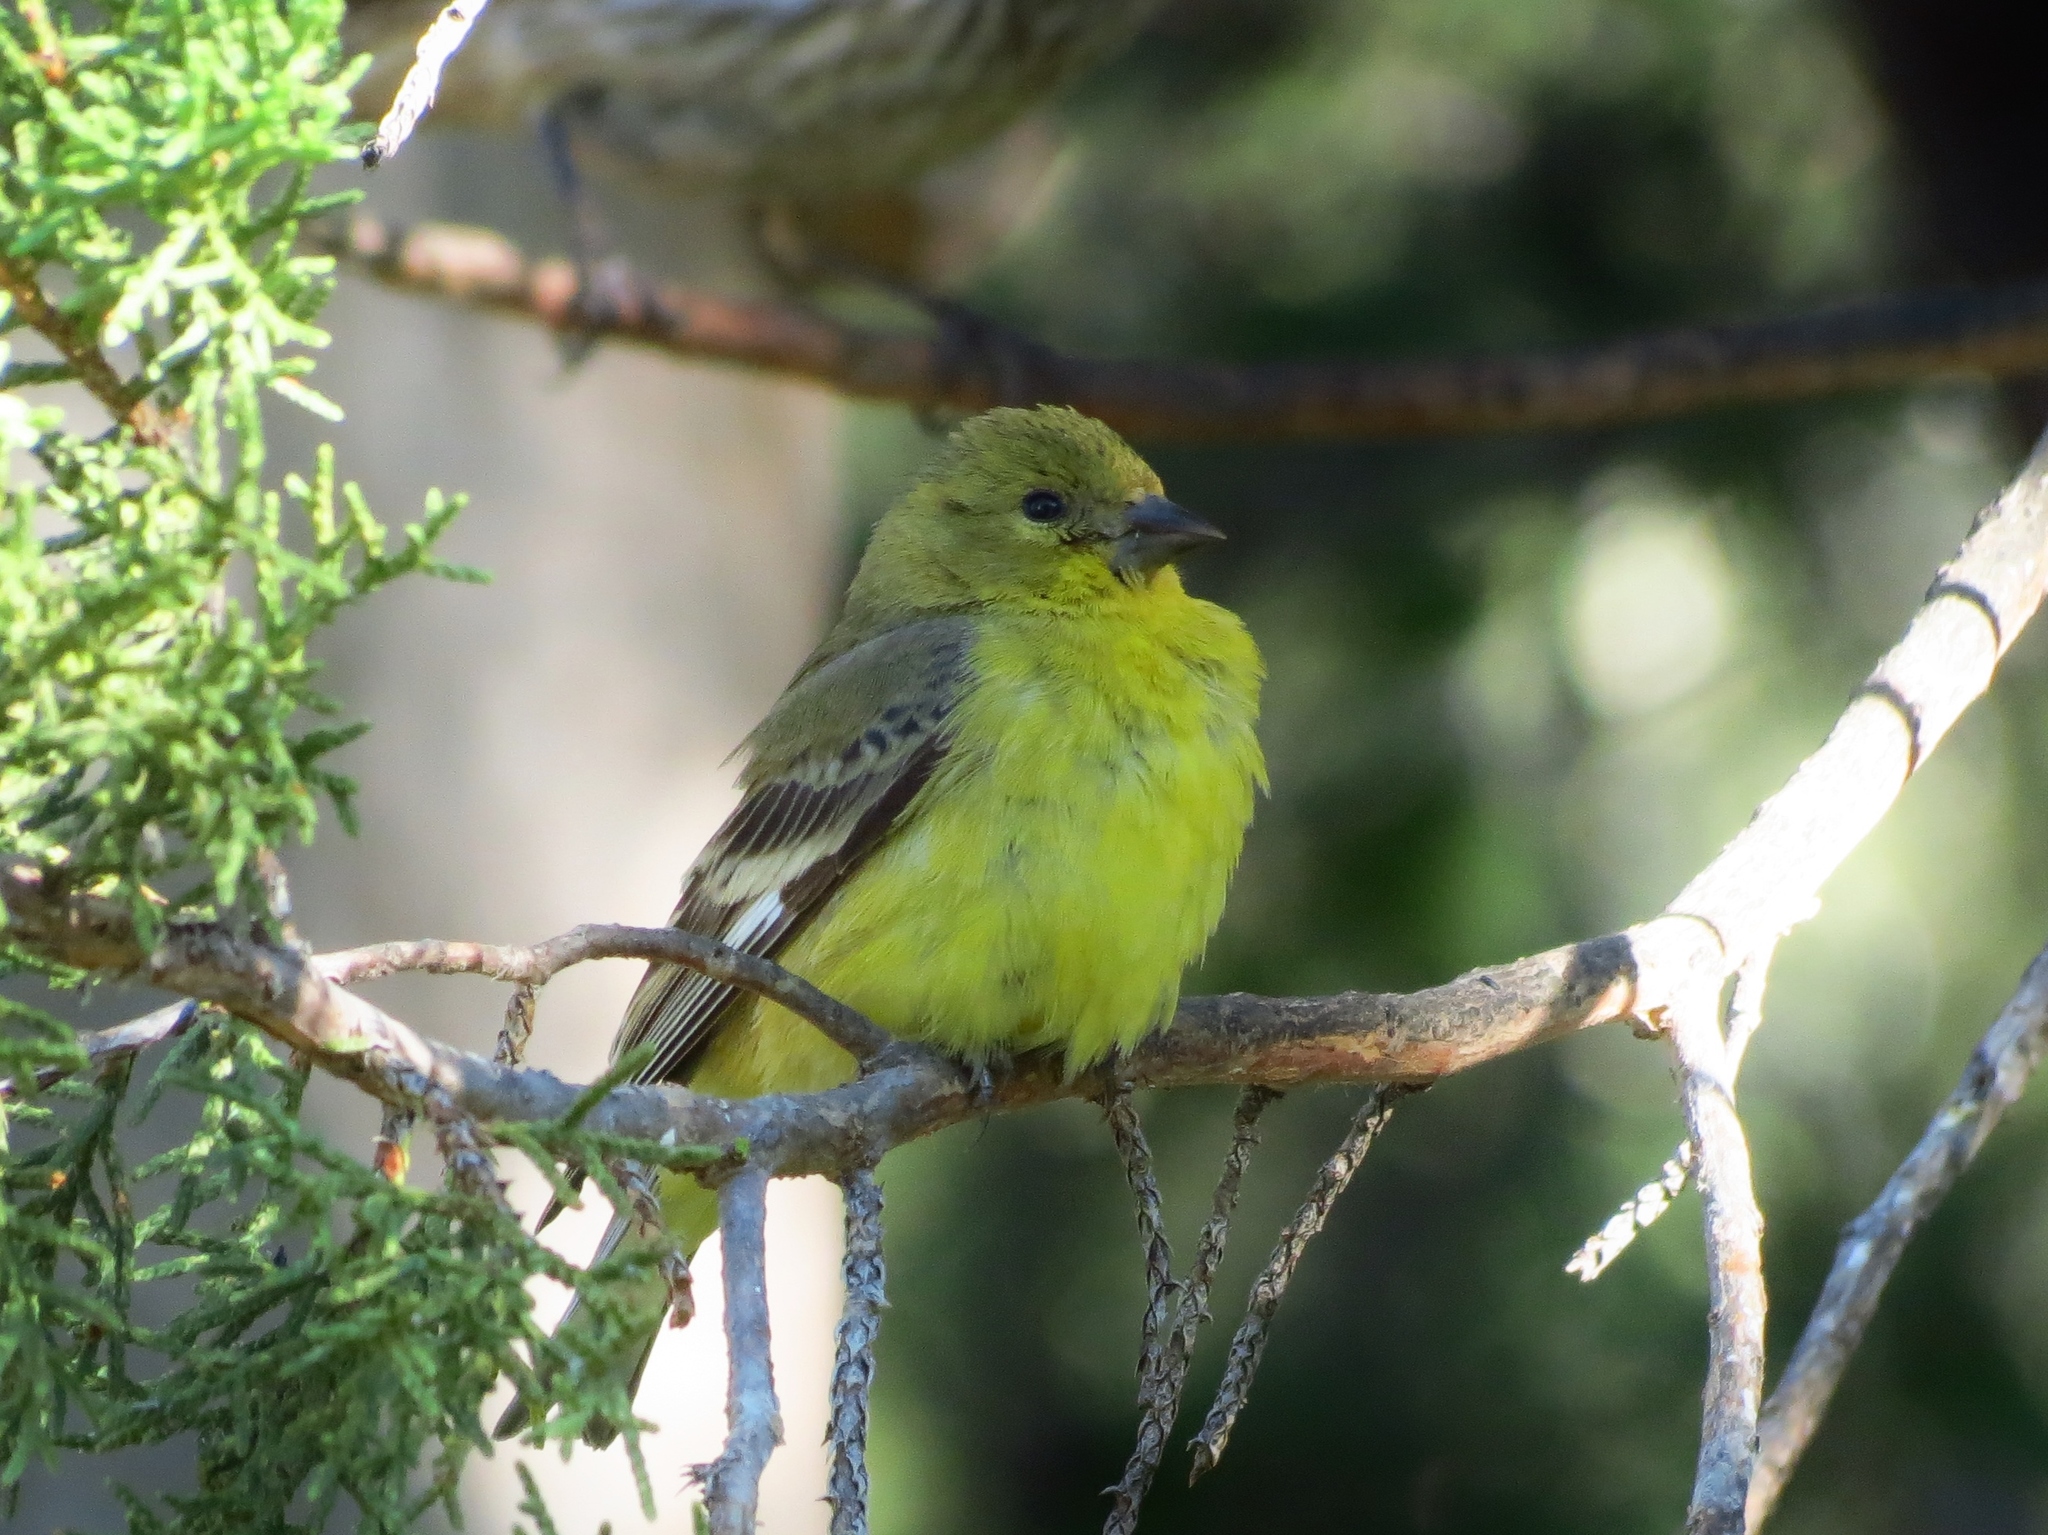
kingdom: Animalia
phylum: Chordata
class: Aves
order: Passeriformes
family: Fringillidae
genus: Spinus
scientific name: Spinus psaltria
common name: Lesser goldfinch
